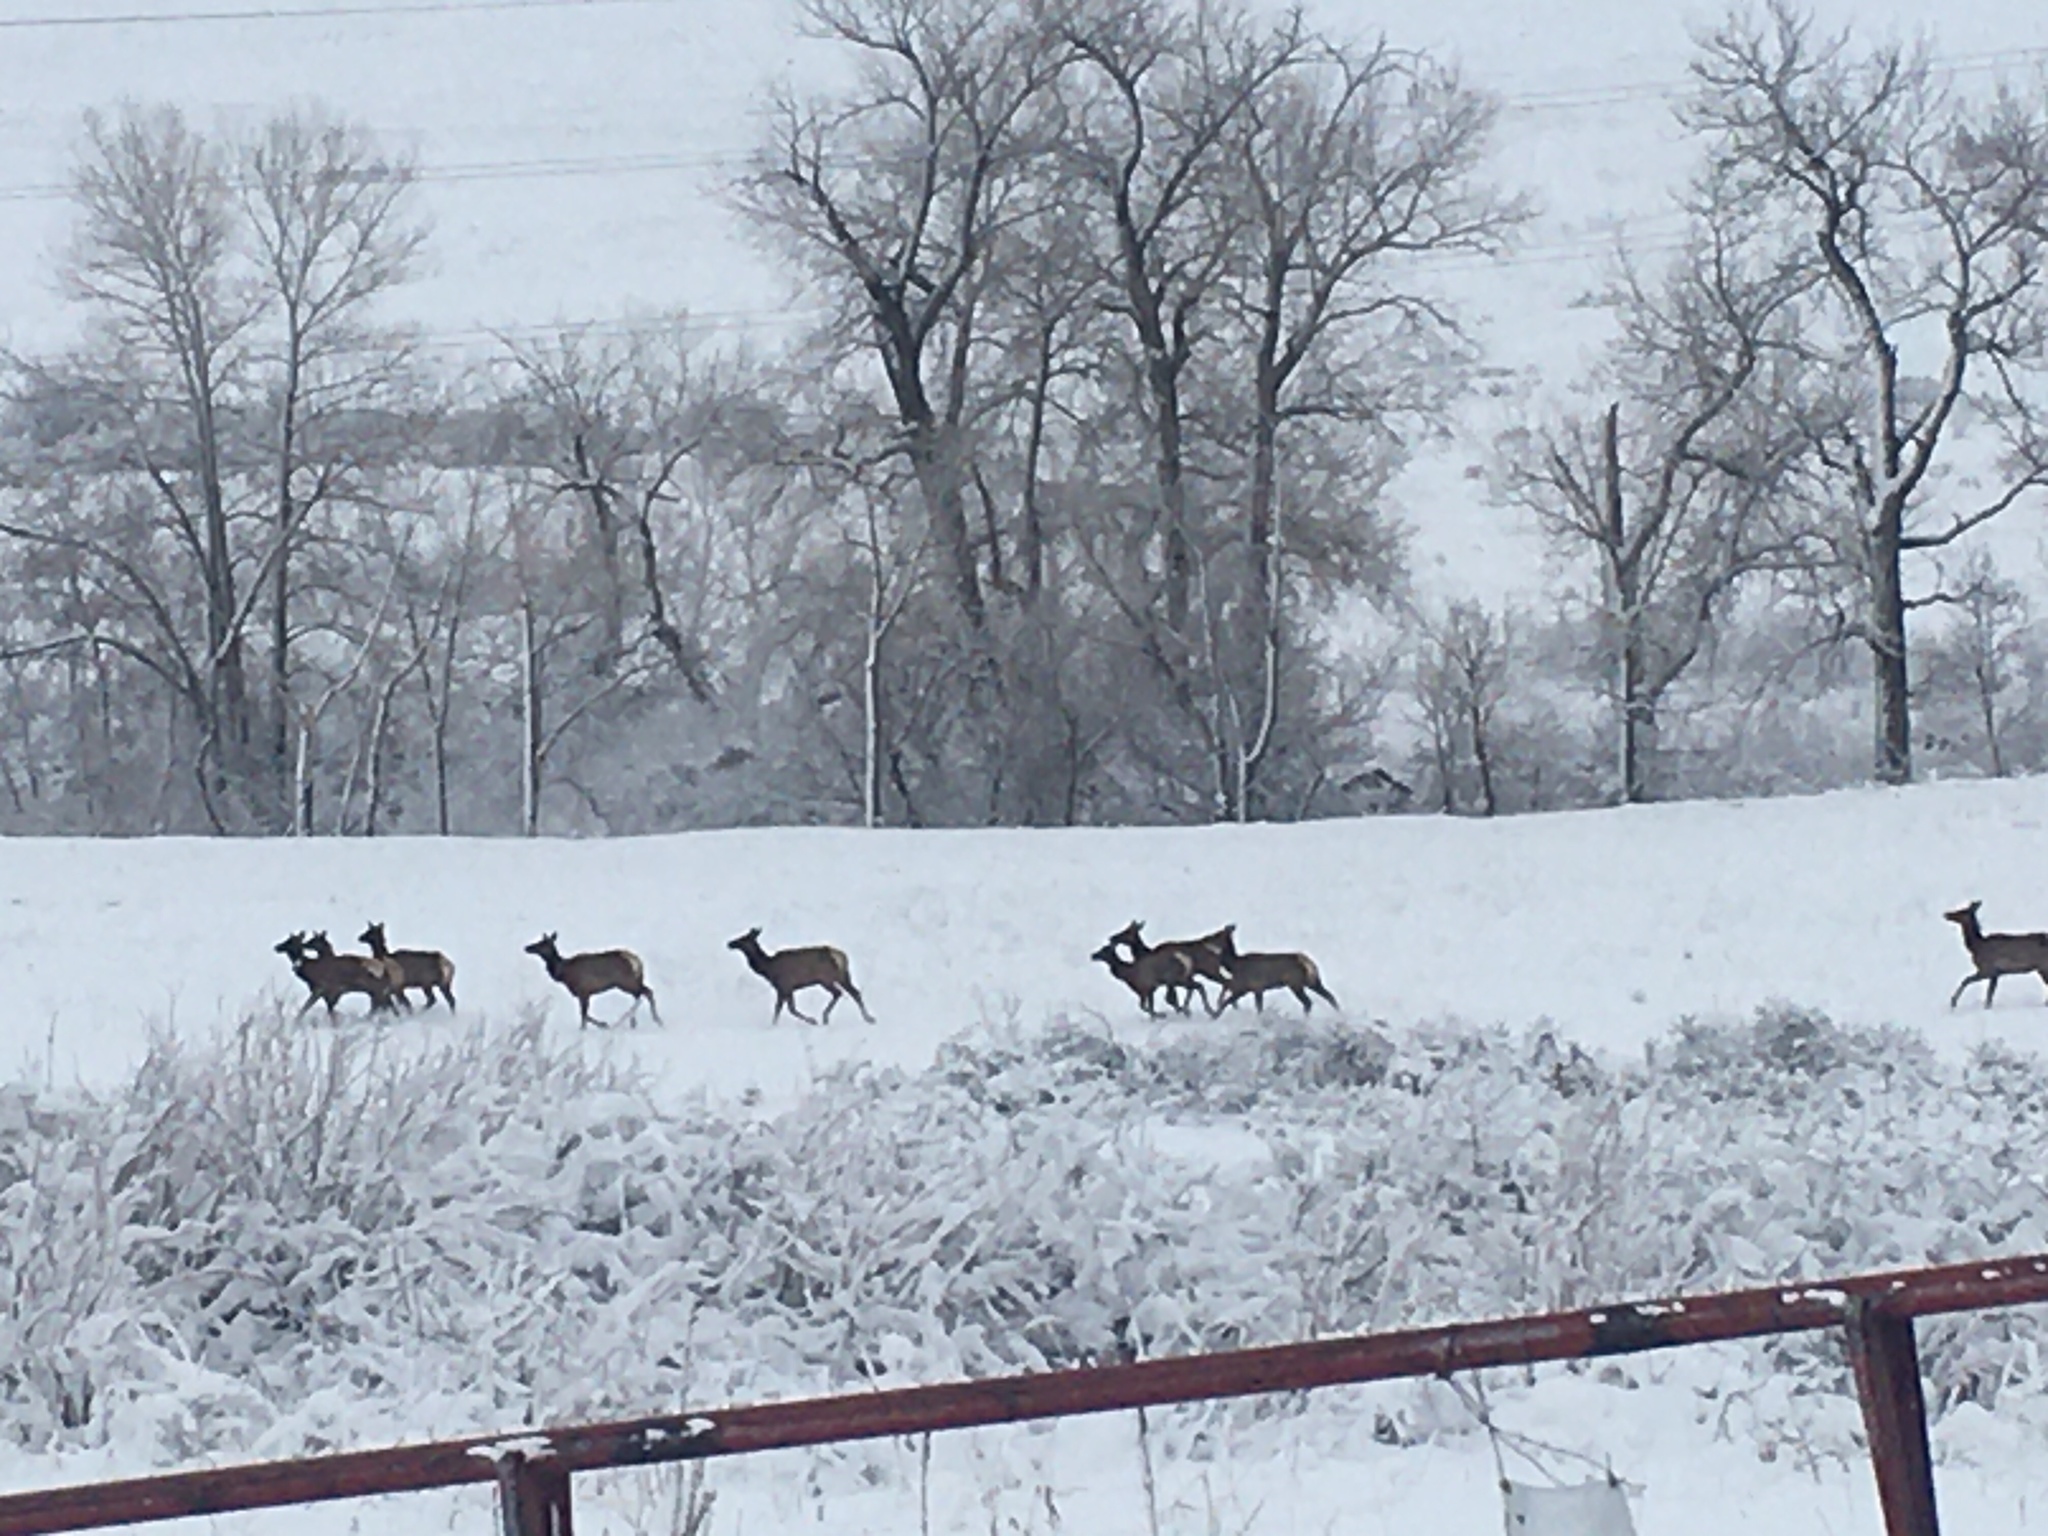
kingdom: Animalia
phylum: Chordata
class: Mammalia
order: Artiodactyla
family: Cervidae
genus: Cervus
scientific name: Cervus elaphus
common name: Red deer
